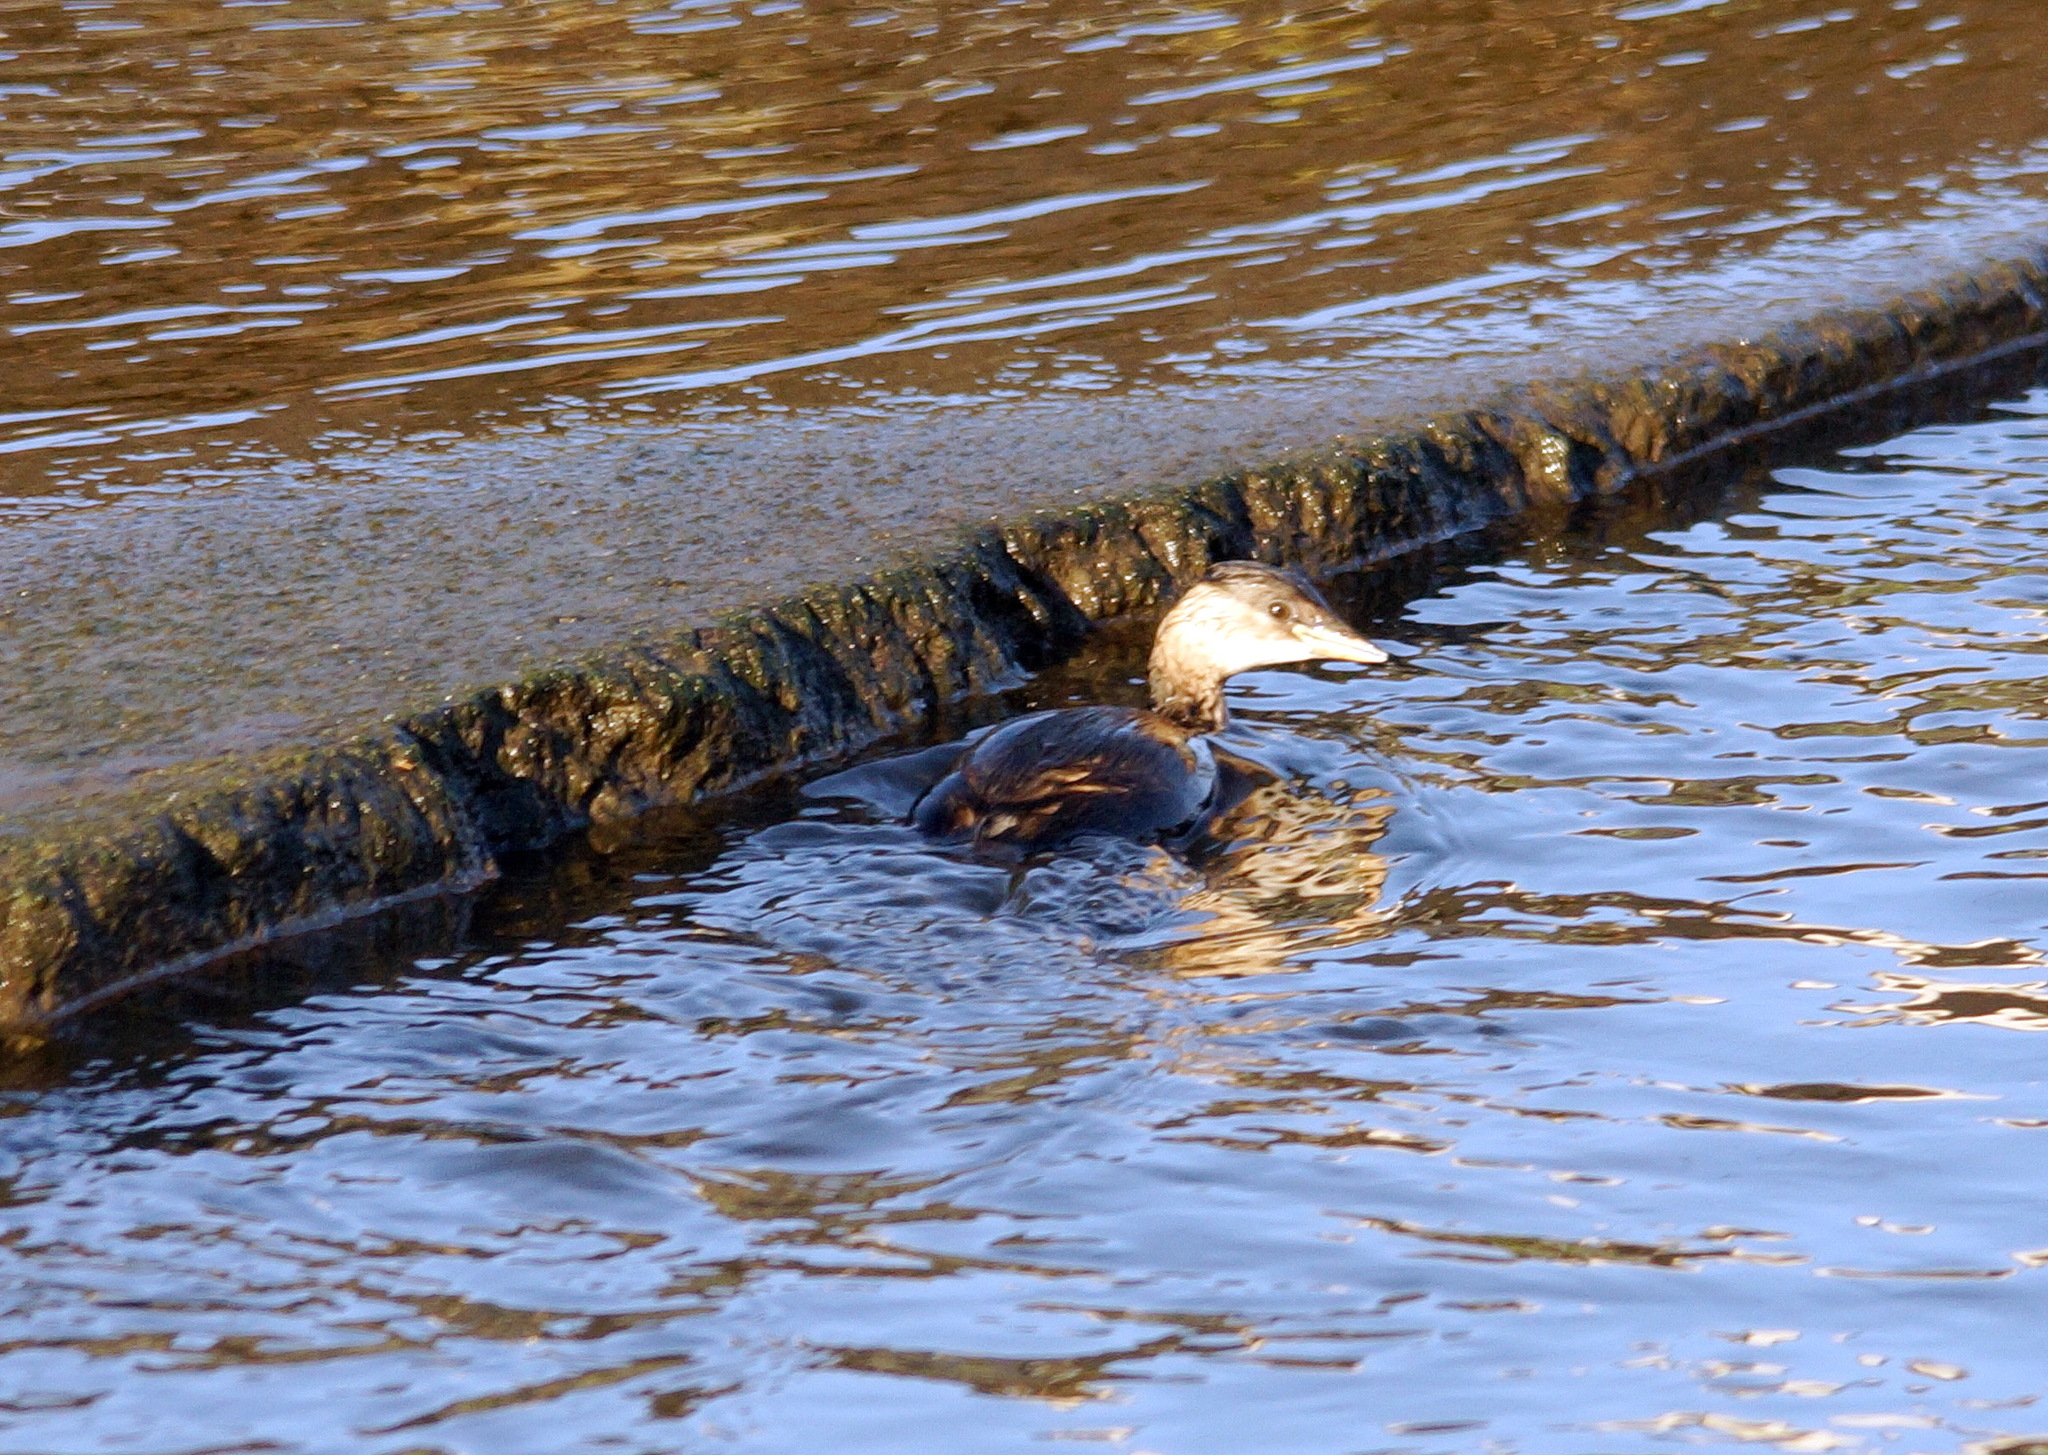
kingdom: Animalia
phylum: Chordata
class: Aves
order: Podicipediformes
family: Podicipedidae
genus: Tachybaptus
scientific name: Tachybaptus ruficollis
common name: Little grebe
